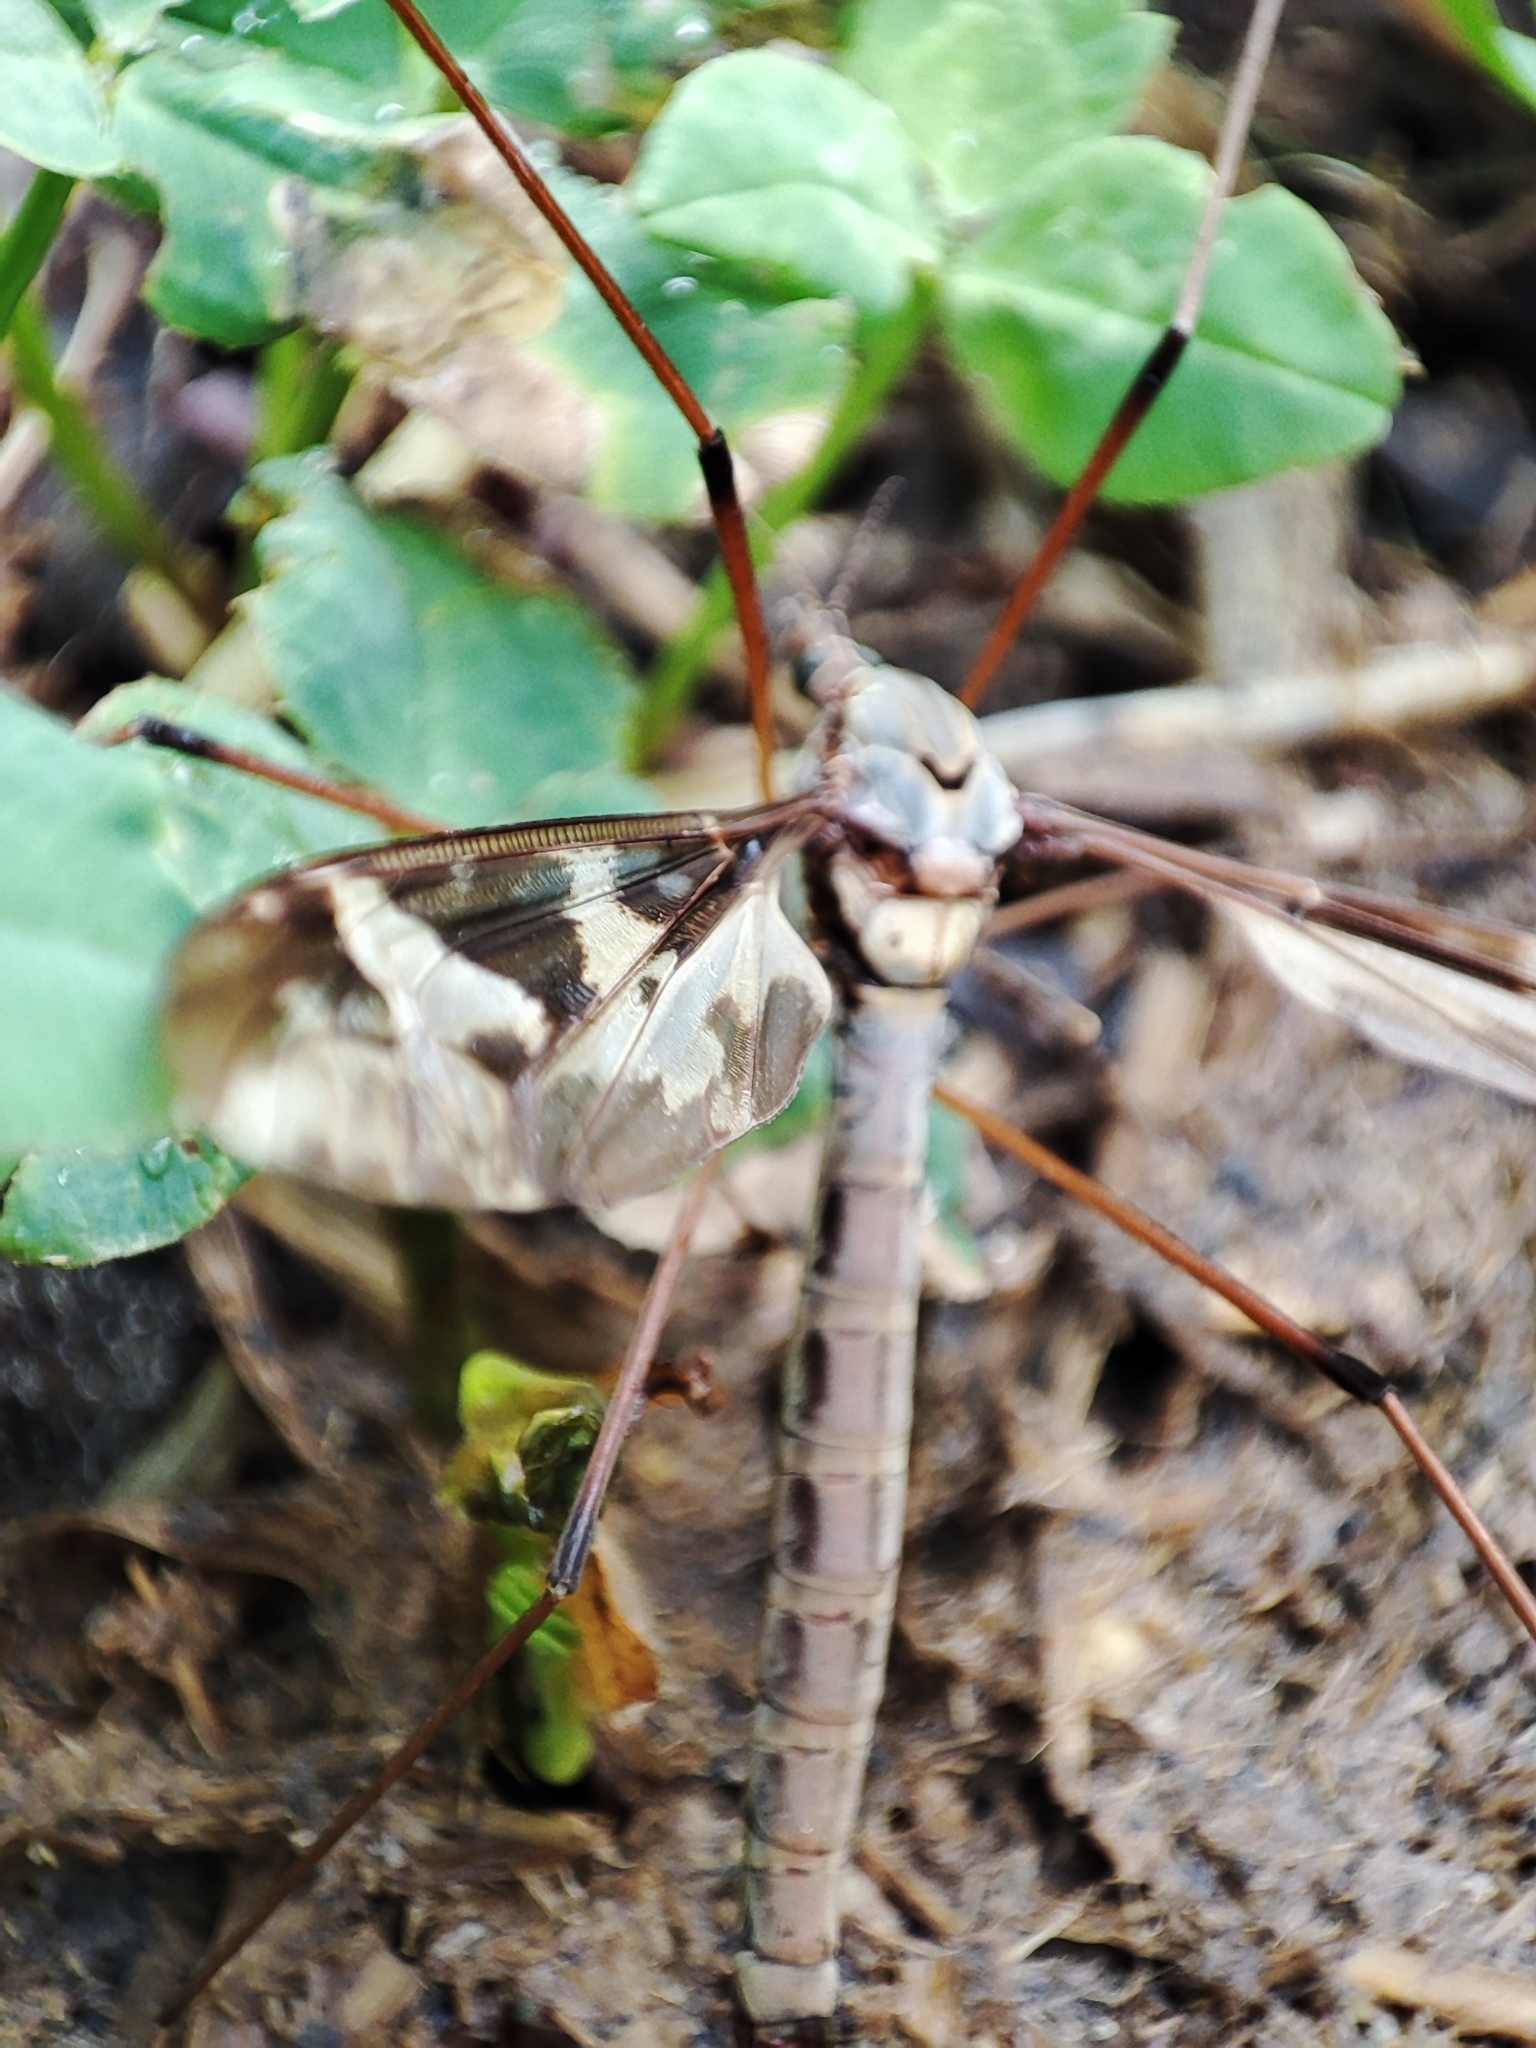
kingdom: Animalia
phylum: Arthropoda
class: Insecta
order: Diptera
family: Tipulidae
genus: Tipula
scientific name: Tipula maxima
